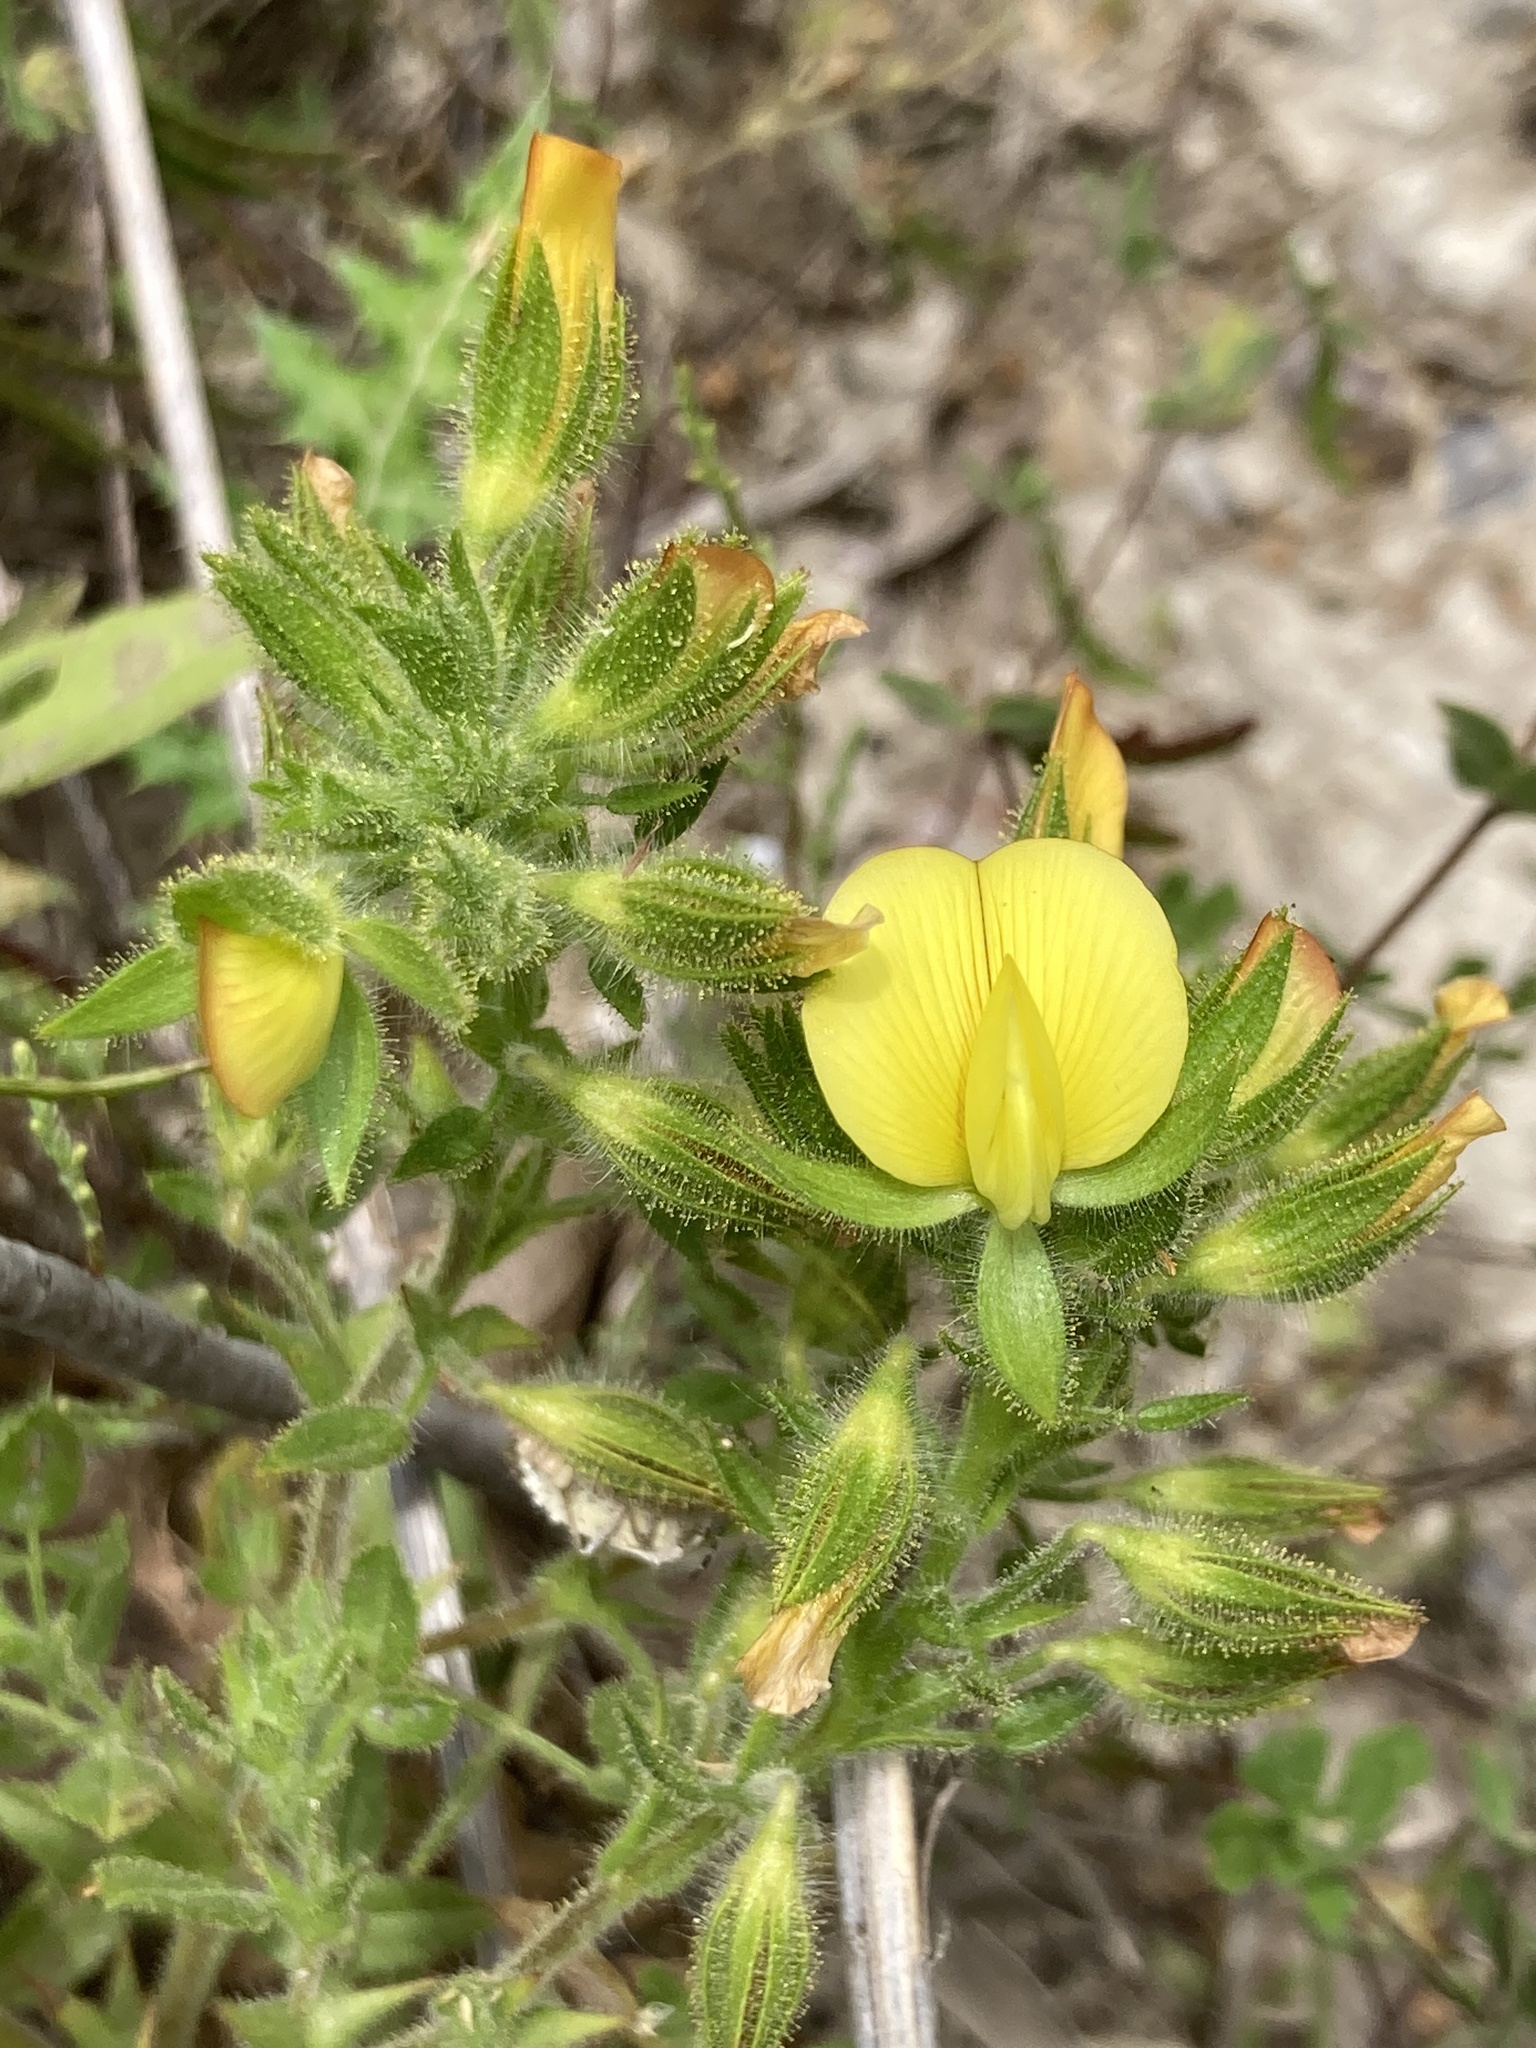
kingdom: Plantae
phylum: Tracheophyta
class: Magnoliopsida
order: Fabales
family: Fabaceae
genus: Ononis
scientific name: Ononis
